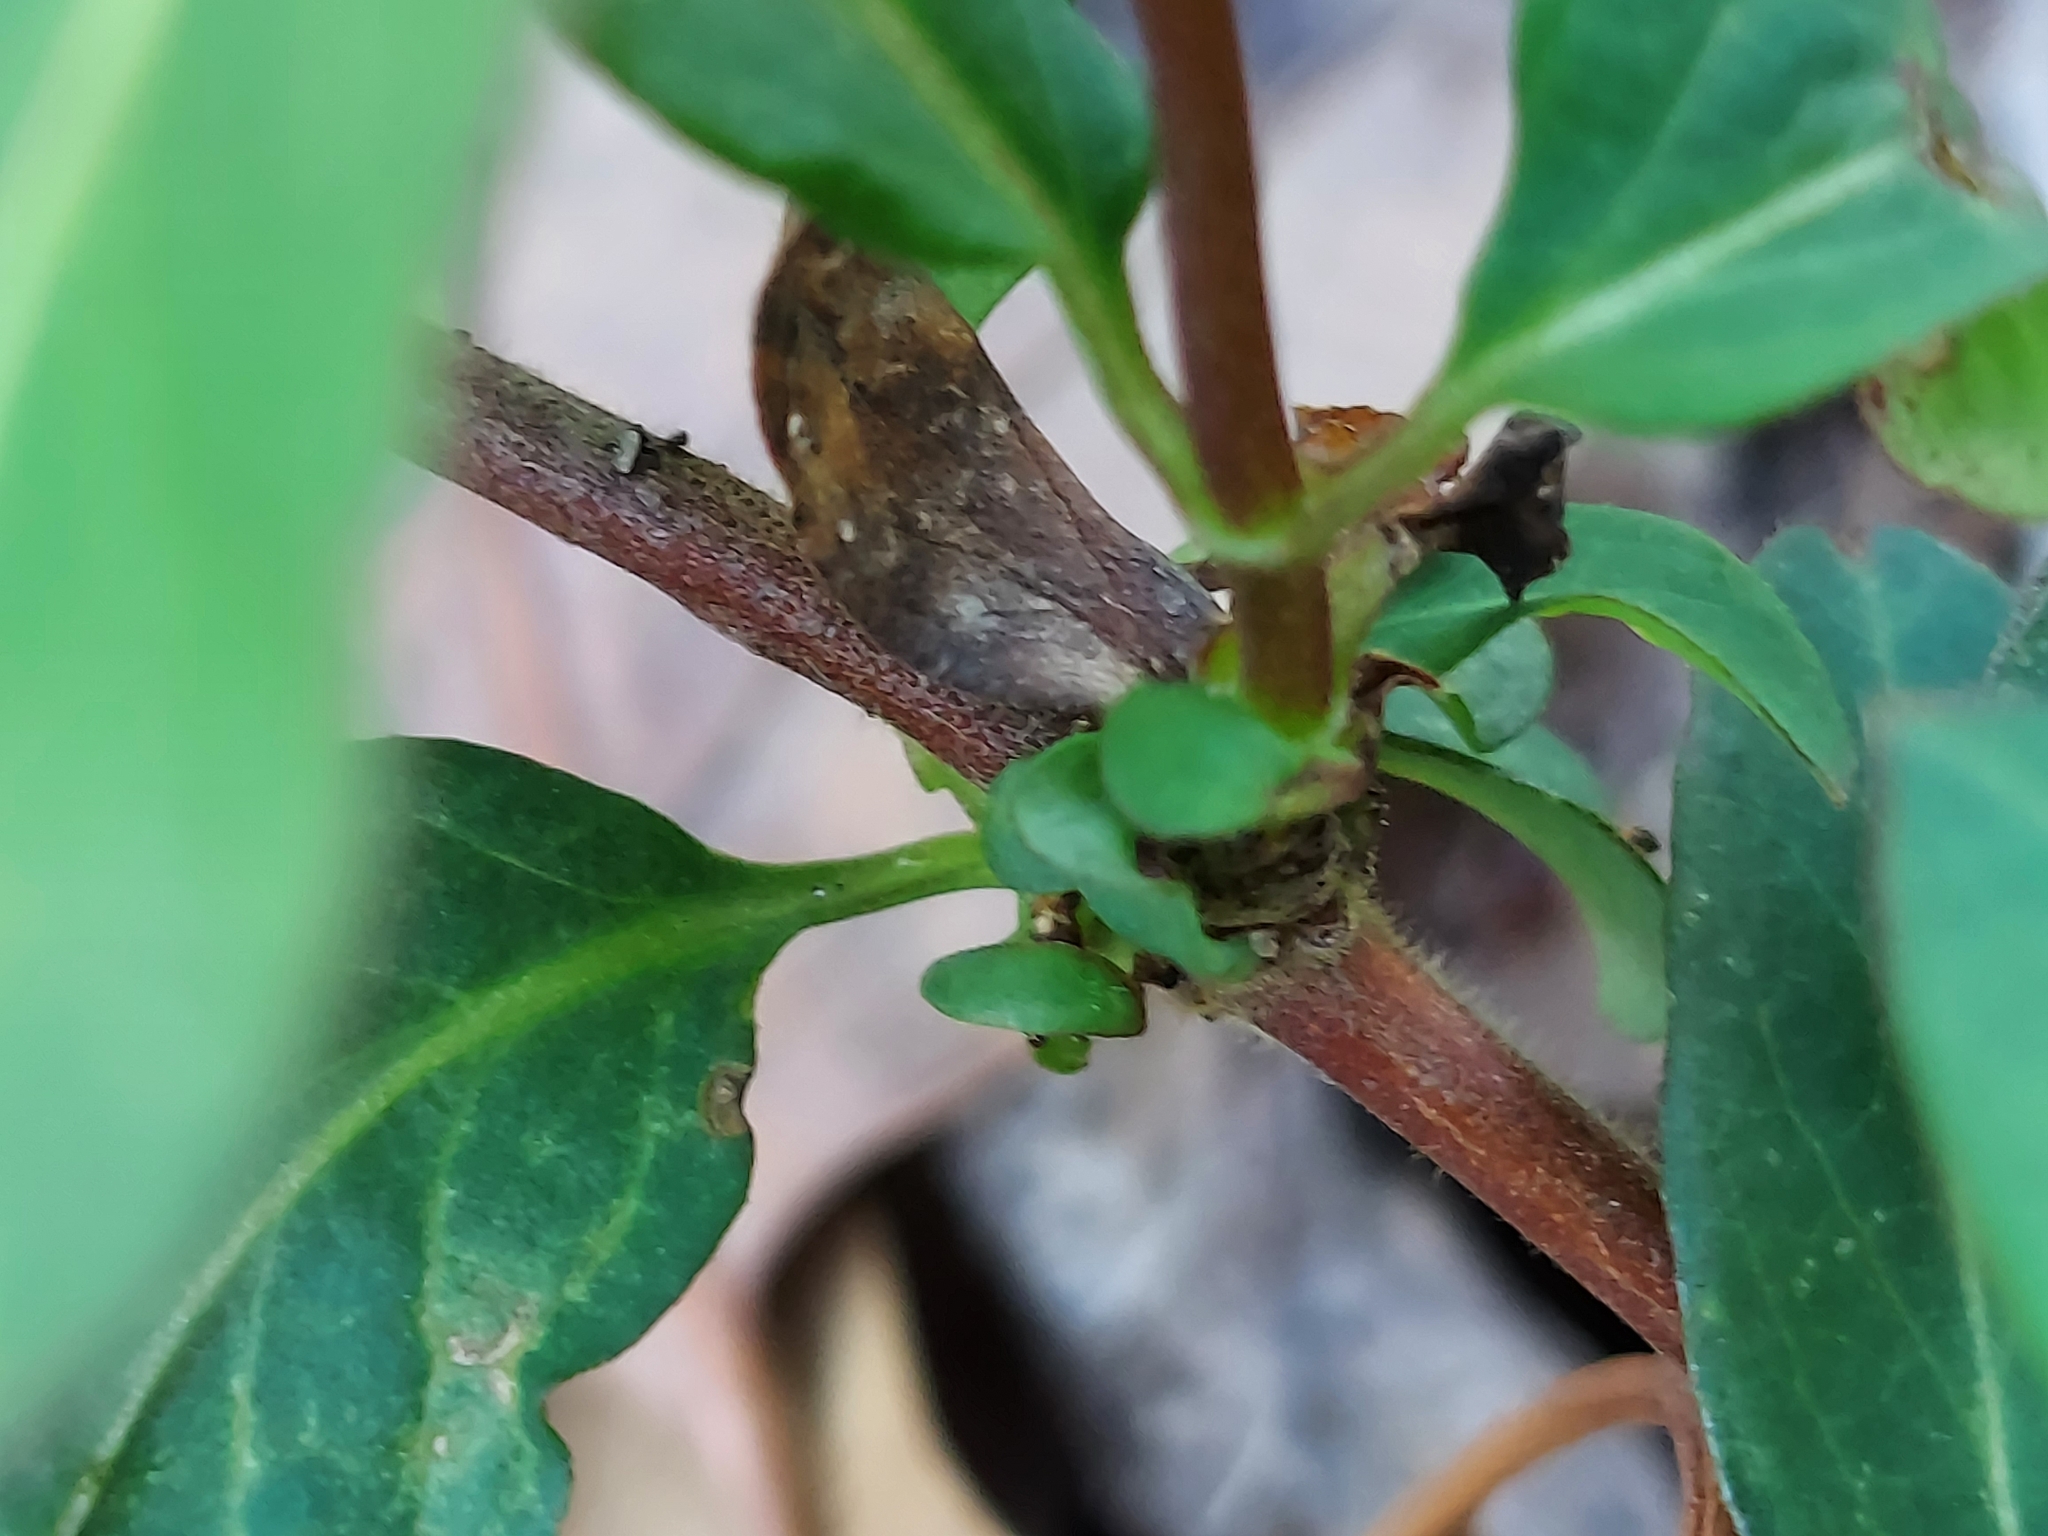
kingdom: Plantae
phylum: Tracheophyta
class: Magnoliopsida
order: Dipsacales
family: Caprifoliaceae
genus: Lonicera
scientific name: Lonicera japonica
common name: Japanese honeysuckle
